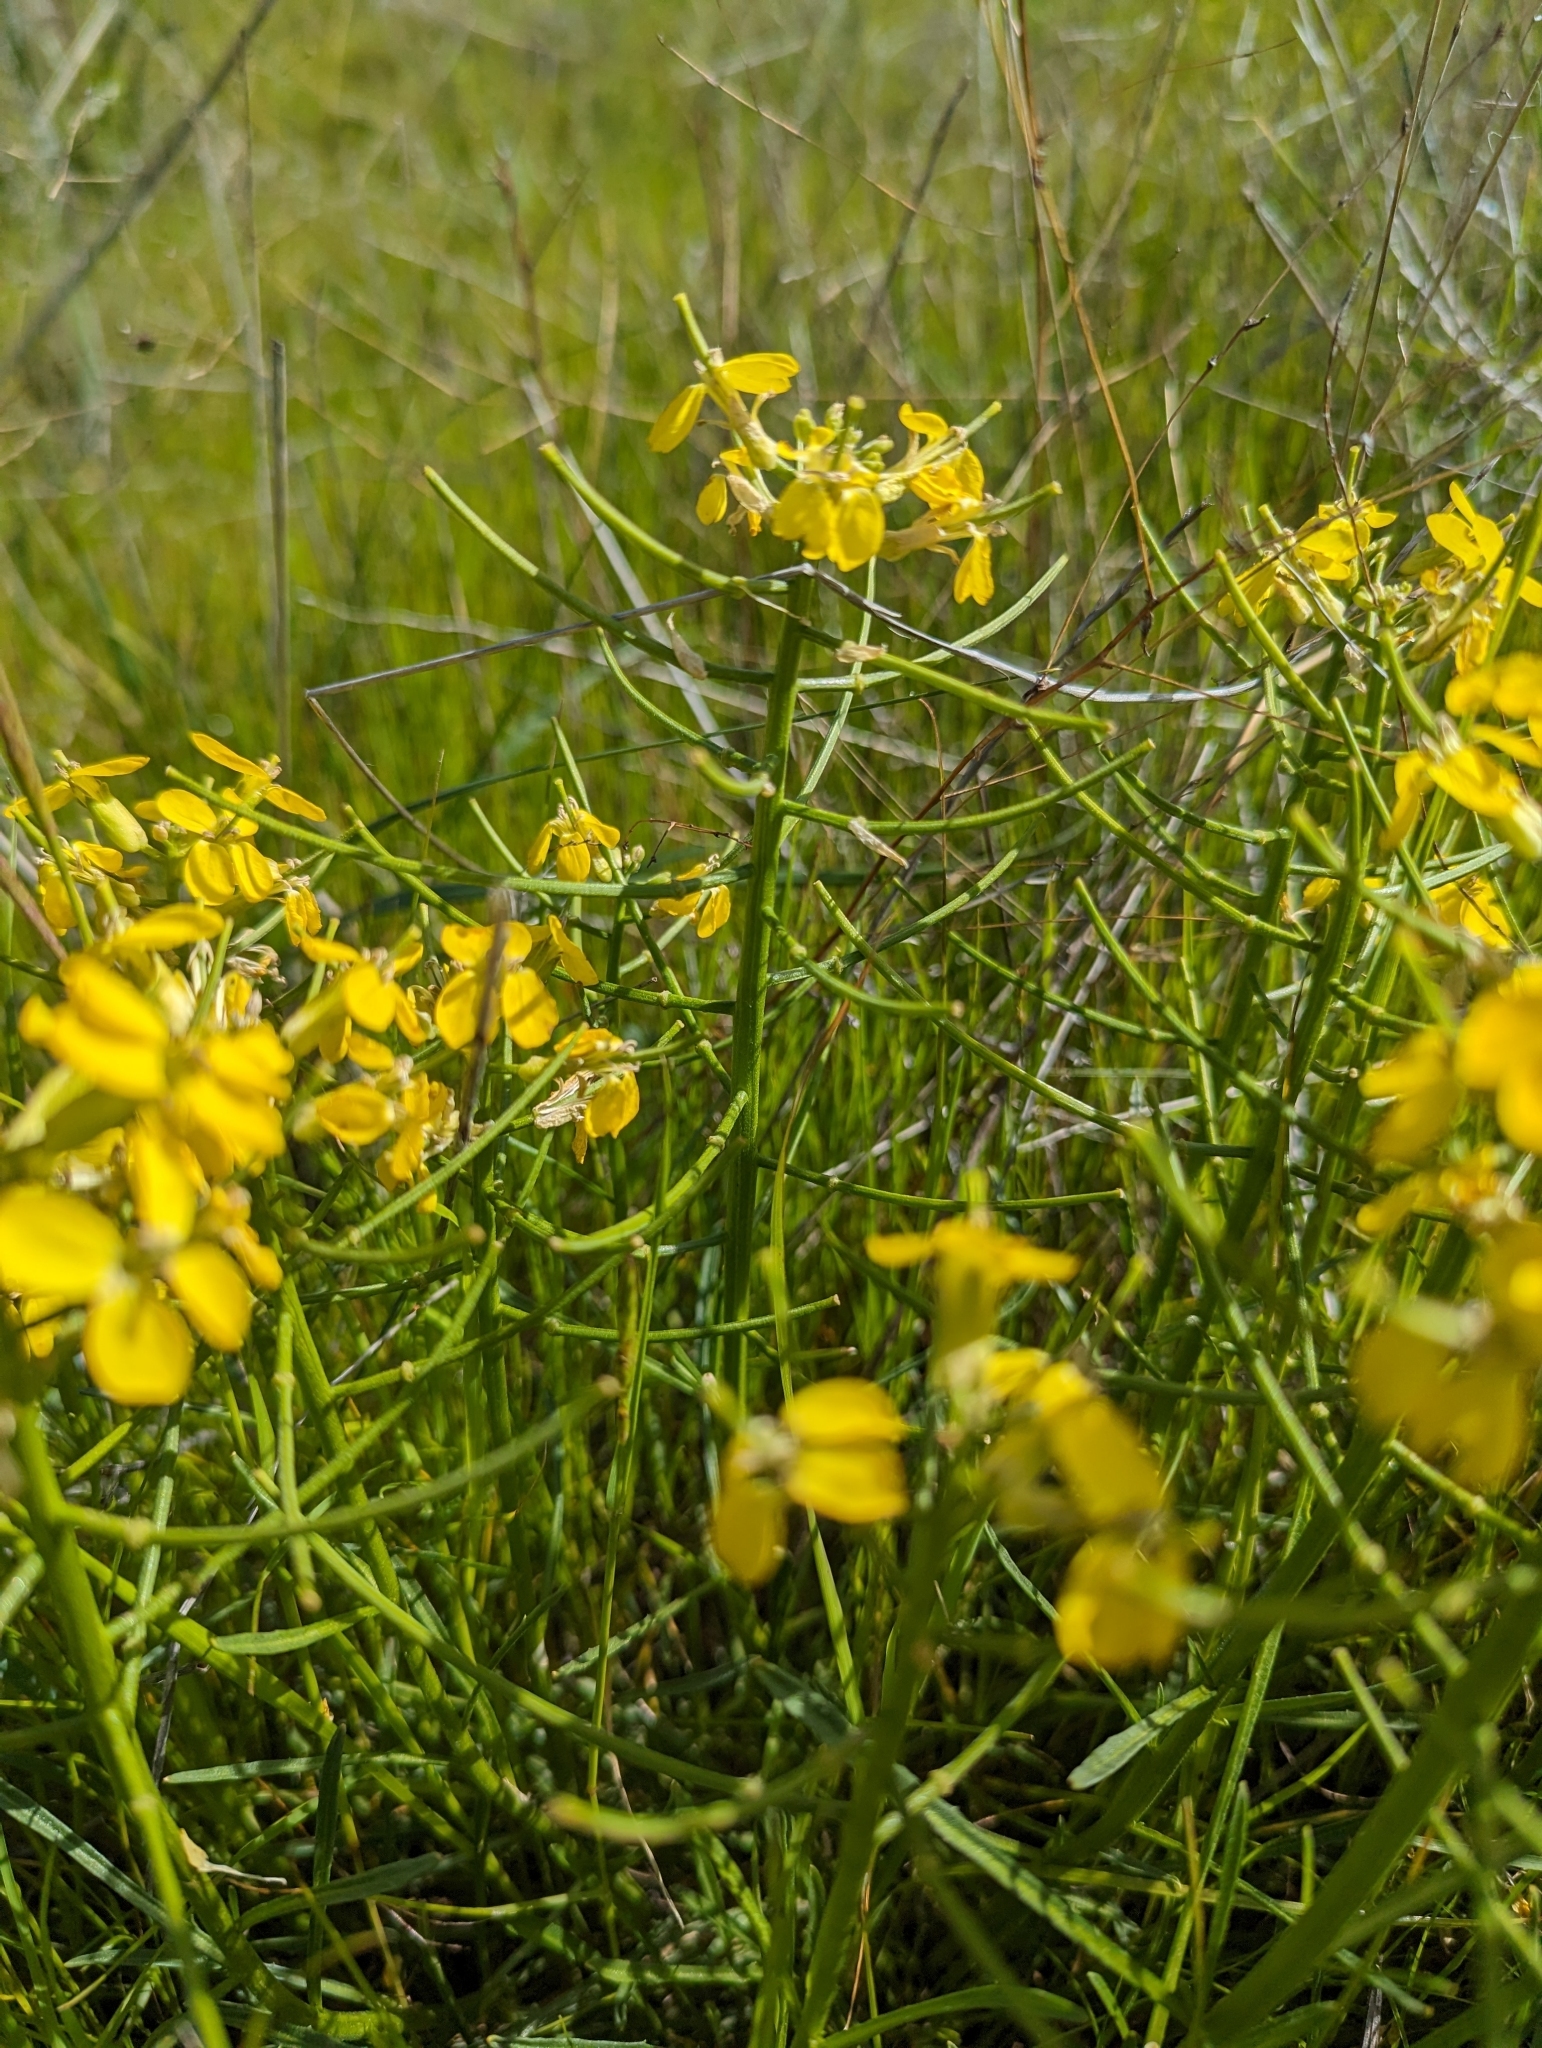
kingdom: Plantae
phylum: Tracheophyta
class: Magnoliopsida
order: Brassicales
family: Brassicaceae
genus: Erysimum
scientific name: Erysimum franciscanum
